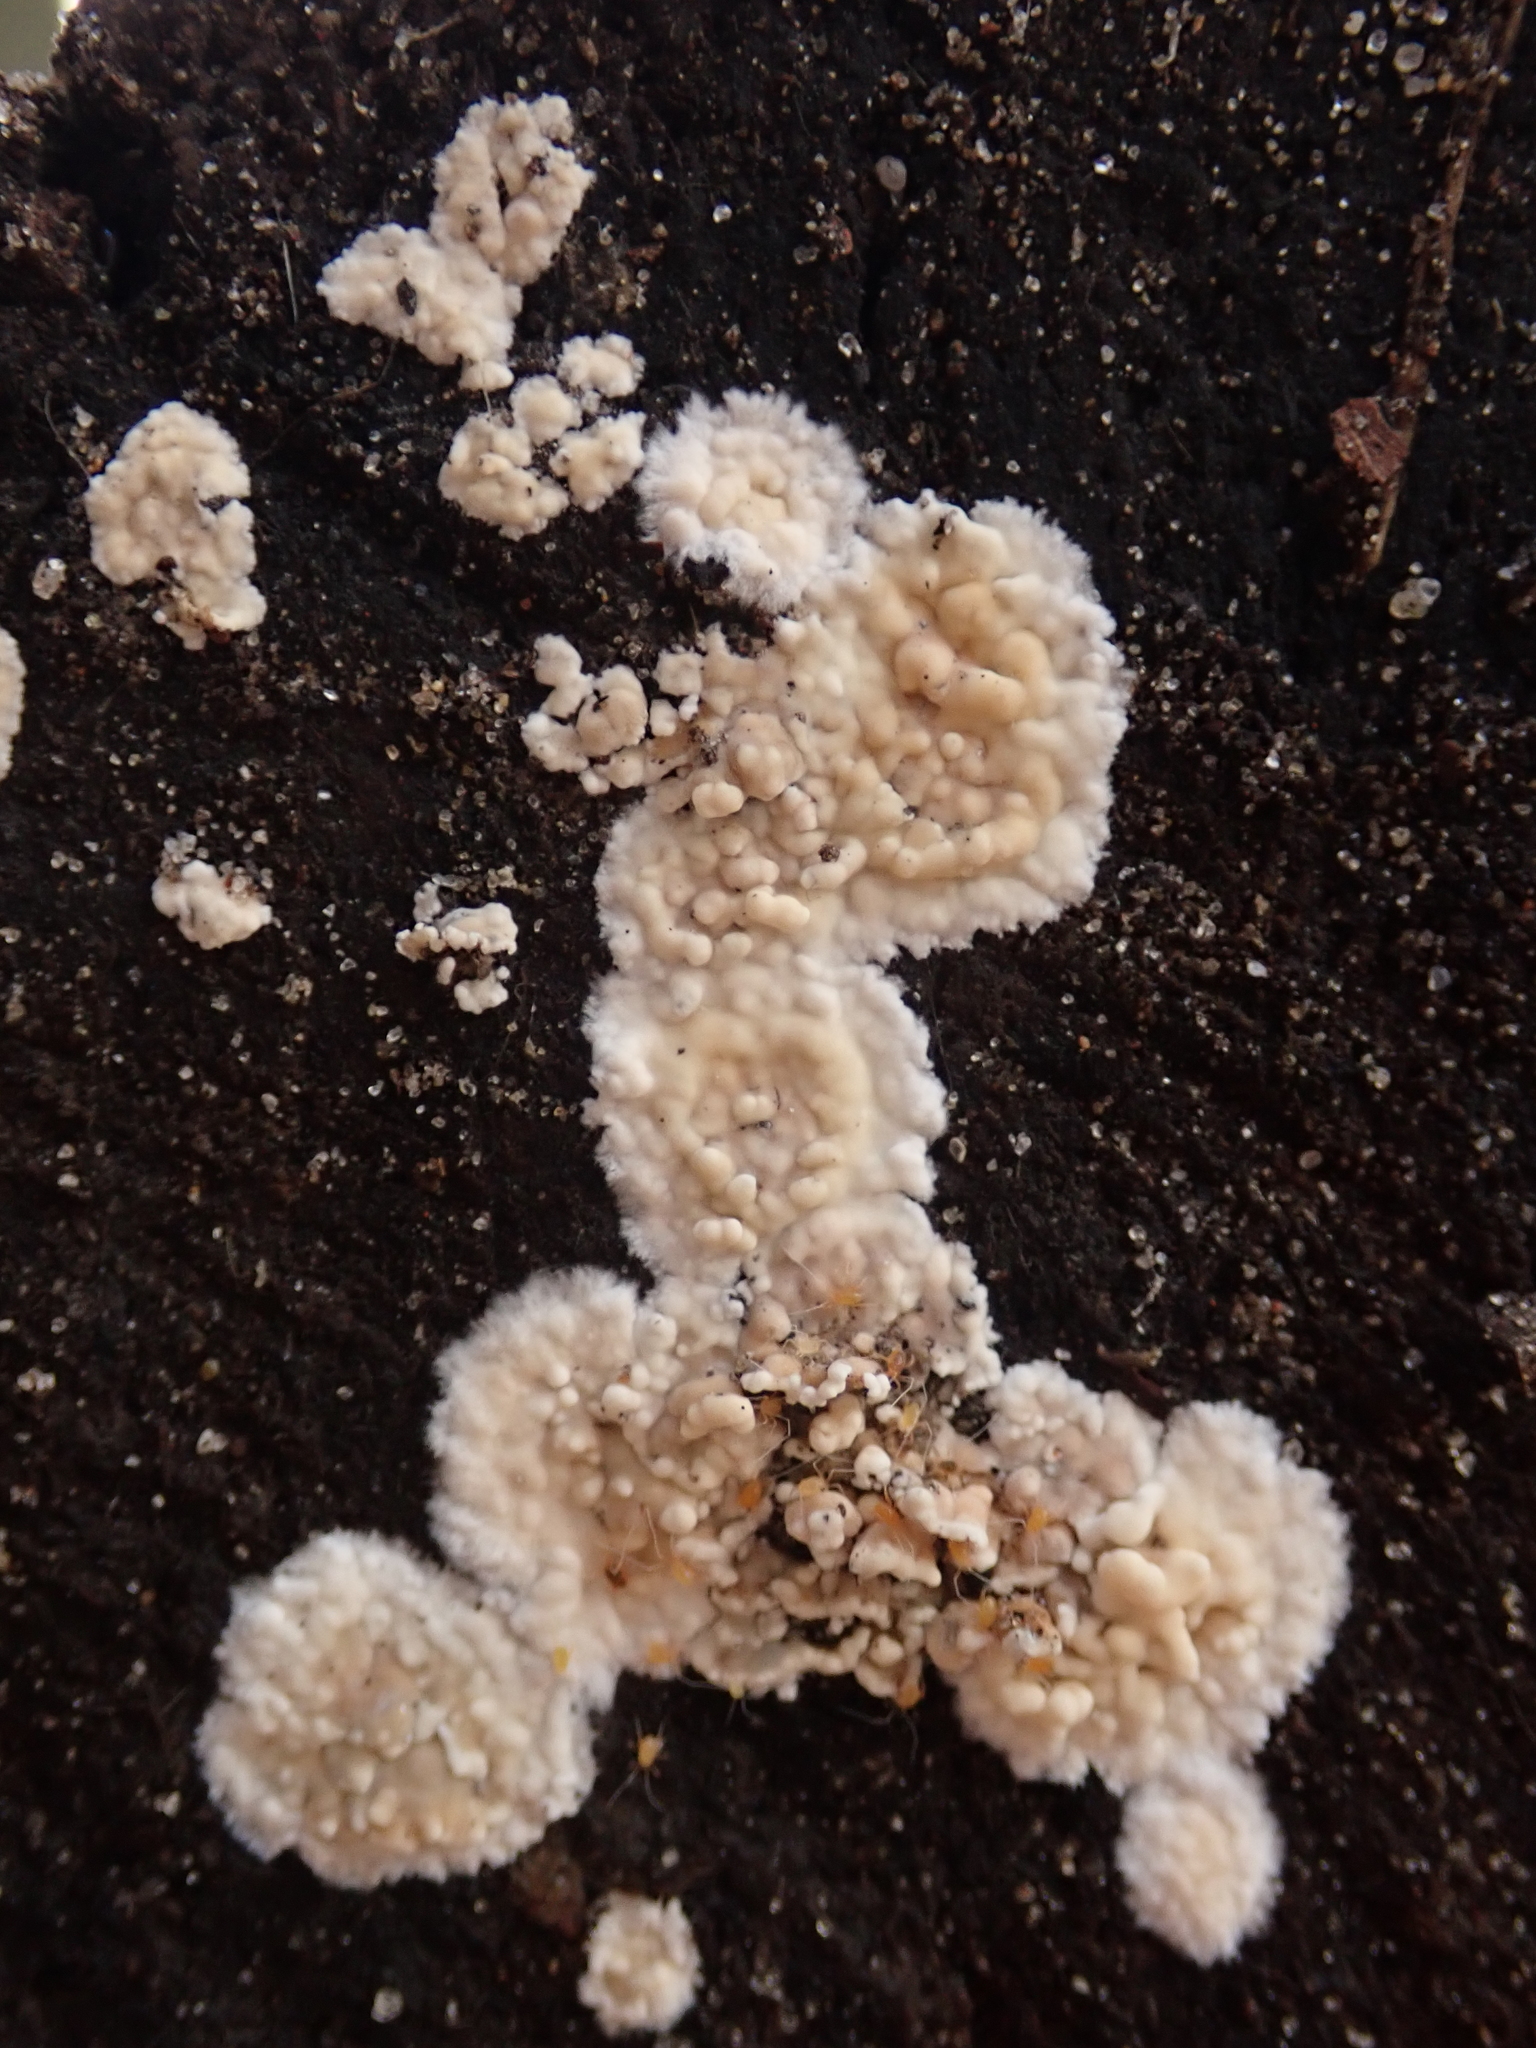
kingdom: Fungi
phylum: Basidiomycota
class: Agaricomycetes
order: Agaricales
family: Physalacriaceae
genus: Cylindrobasidium
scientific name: Cylindrobasidium laeve
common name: Tear dropper
